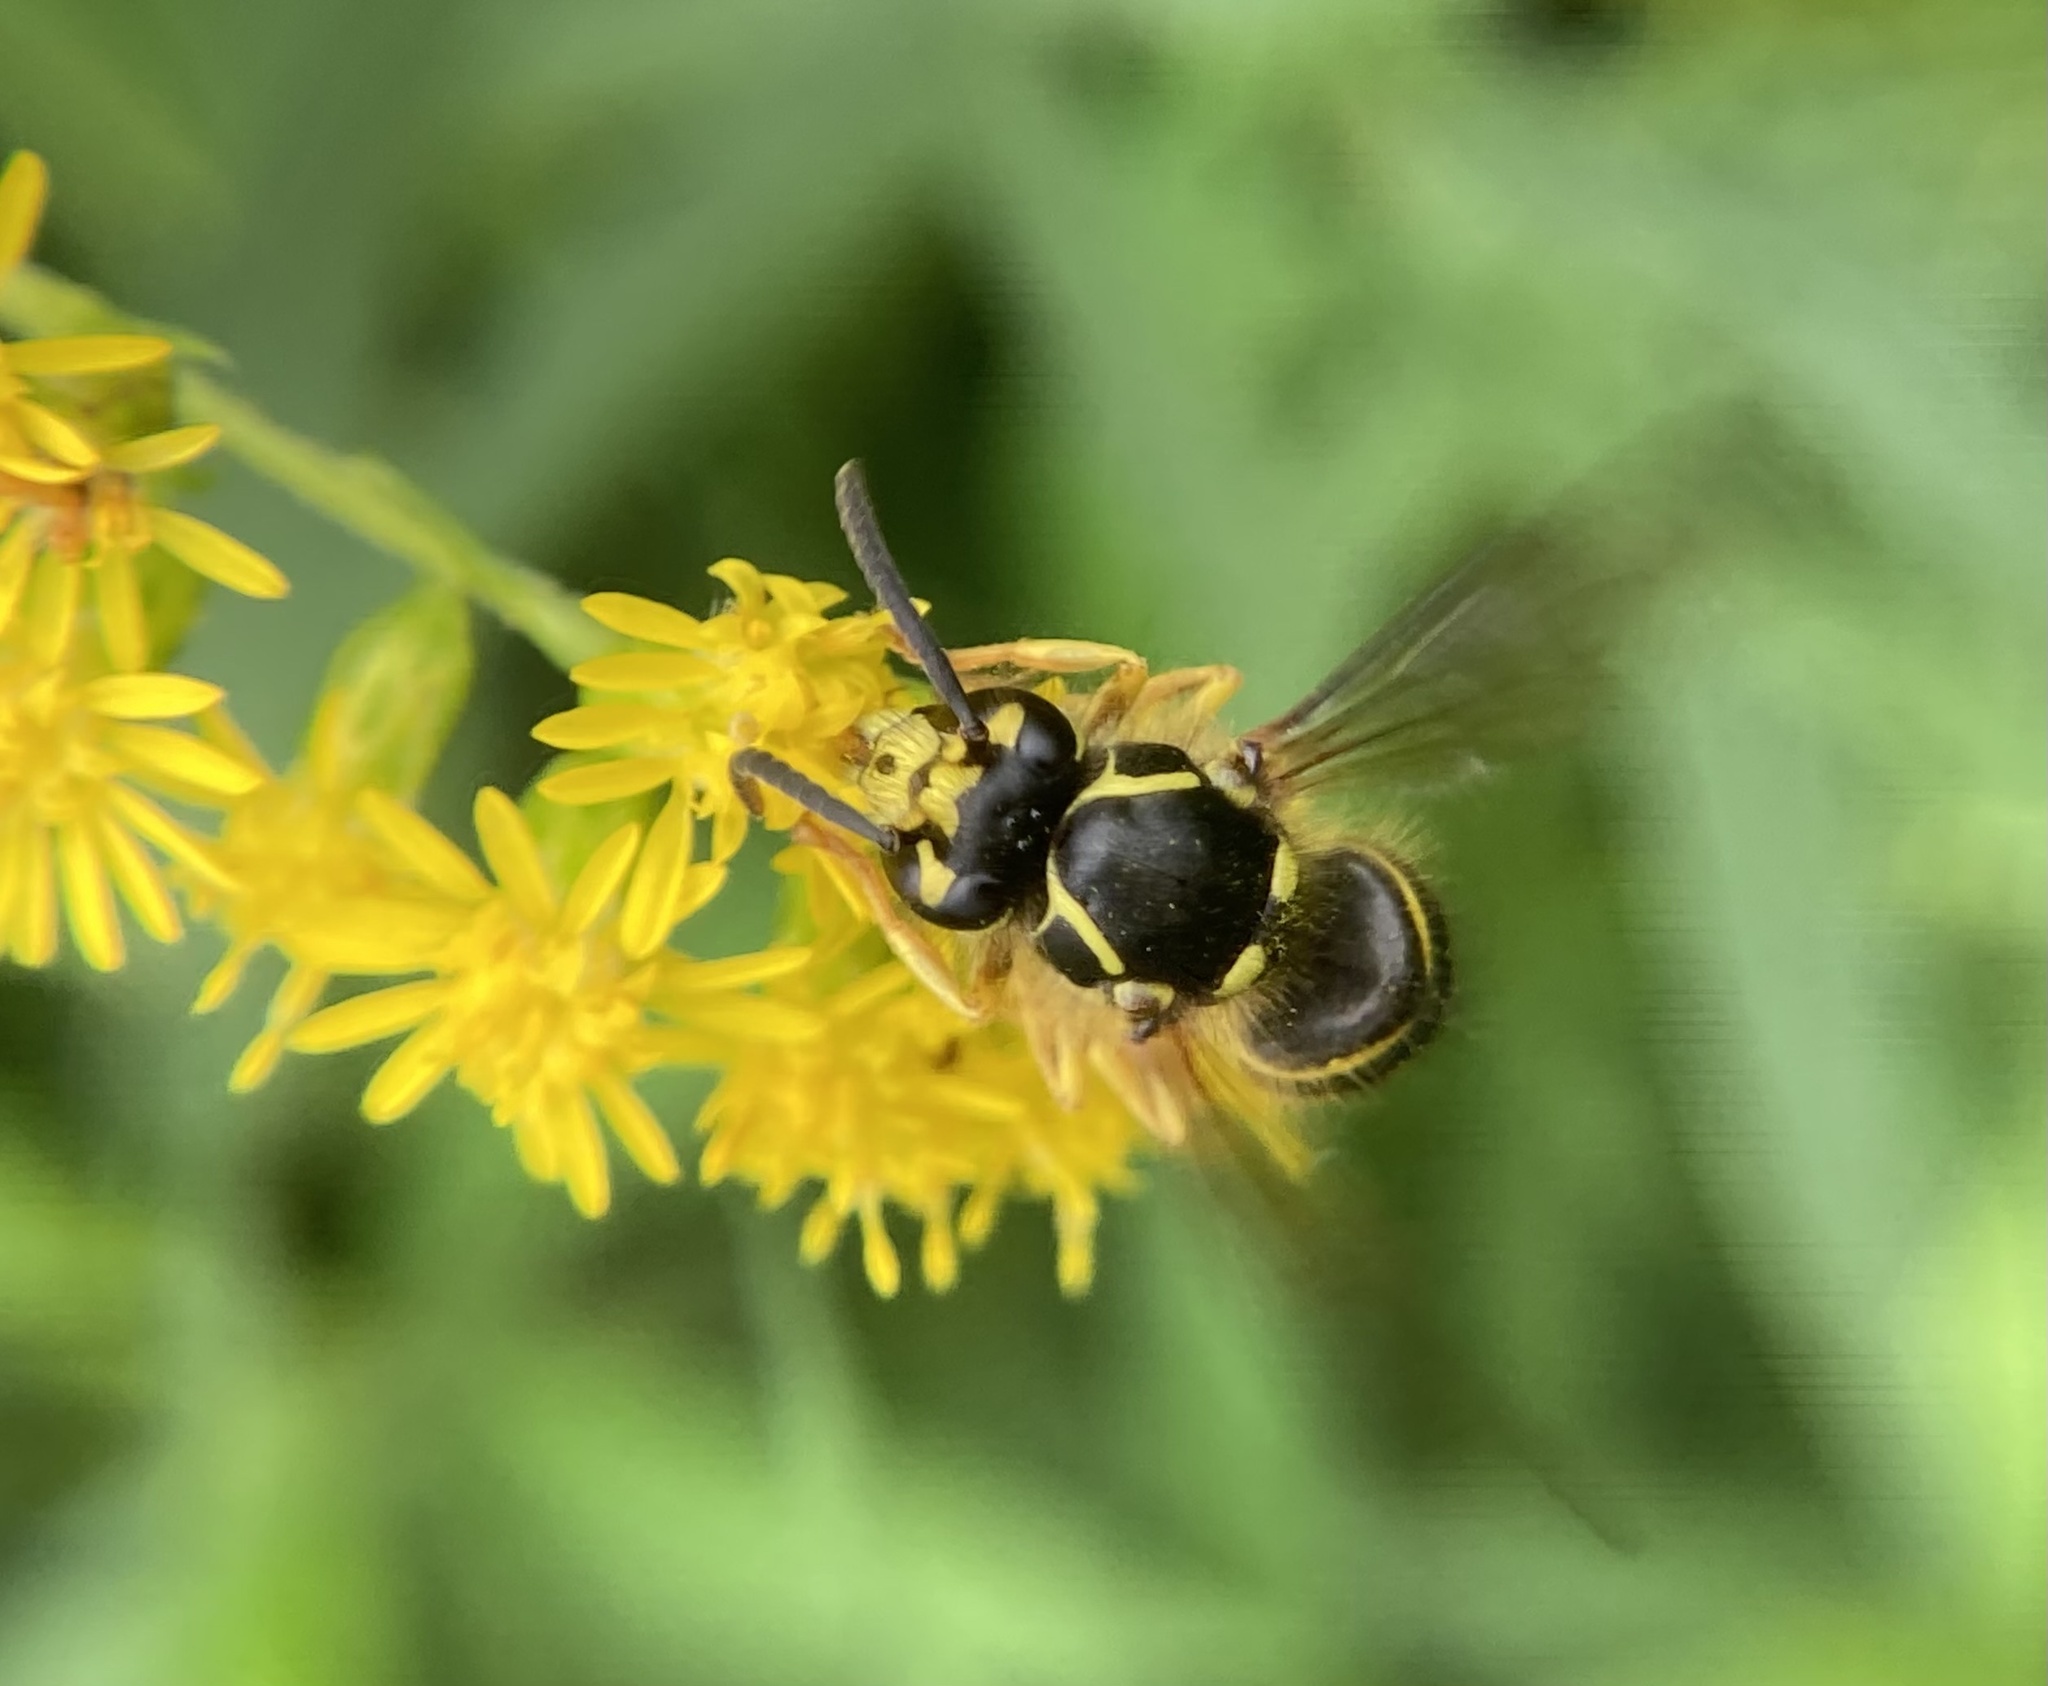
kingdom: Animalia
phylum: Arthropoda
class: Insecta
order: Hymenoptera
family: Vespidae
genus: Dolichovespula
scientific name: Dolichovespula arenaria
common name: Aerial yellowjacket
